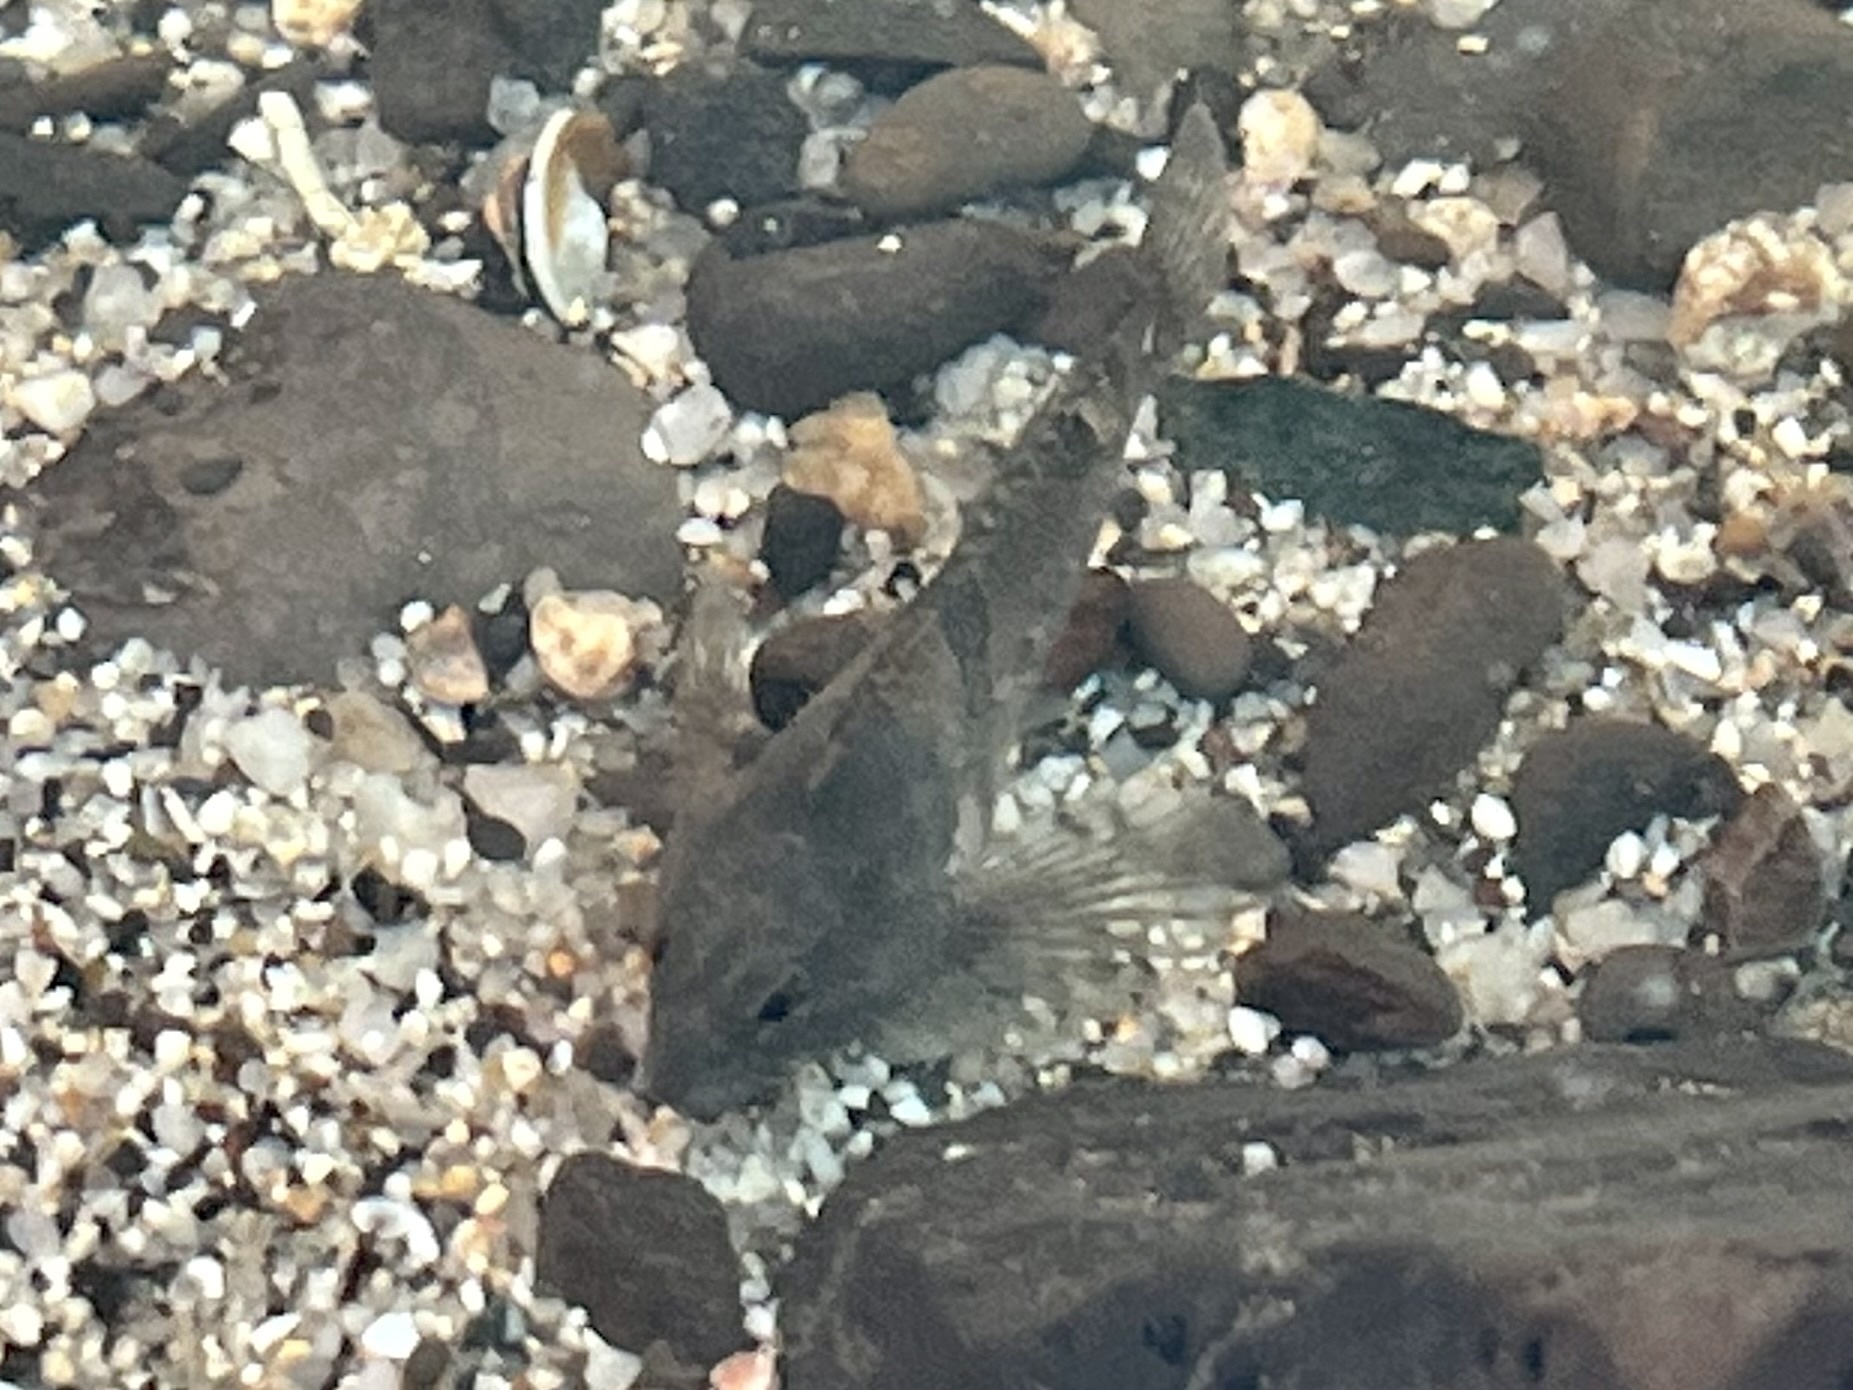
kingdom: Animalia
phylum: Chordata
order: Scorpaeniformes
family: Cottidae
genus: Oligocottus
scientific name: Oligocottus maculosus
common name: Tidepool sculpin
